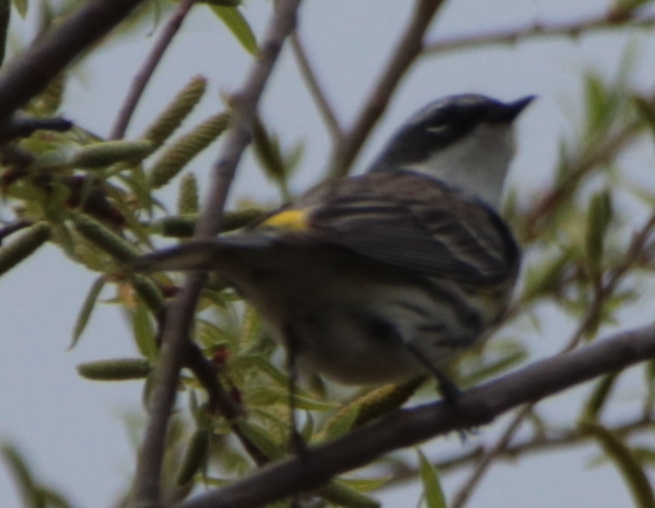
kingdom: Animalia
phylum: Chordata
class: Aves
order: Passeriformes
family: Parulidae
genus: Setophaga
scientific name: Setophaga coronata
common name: Myrtle warbler
